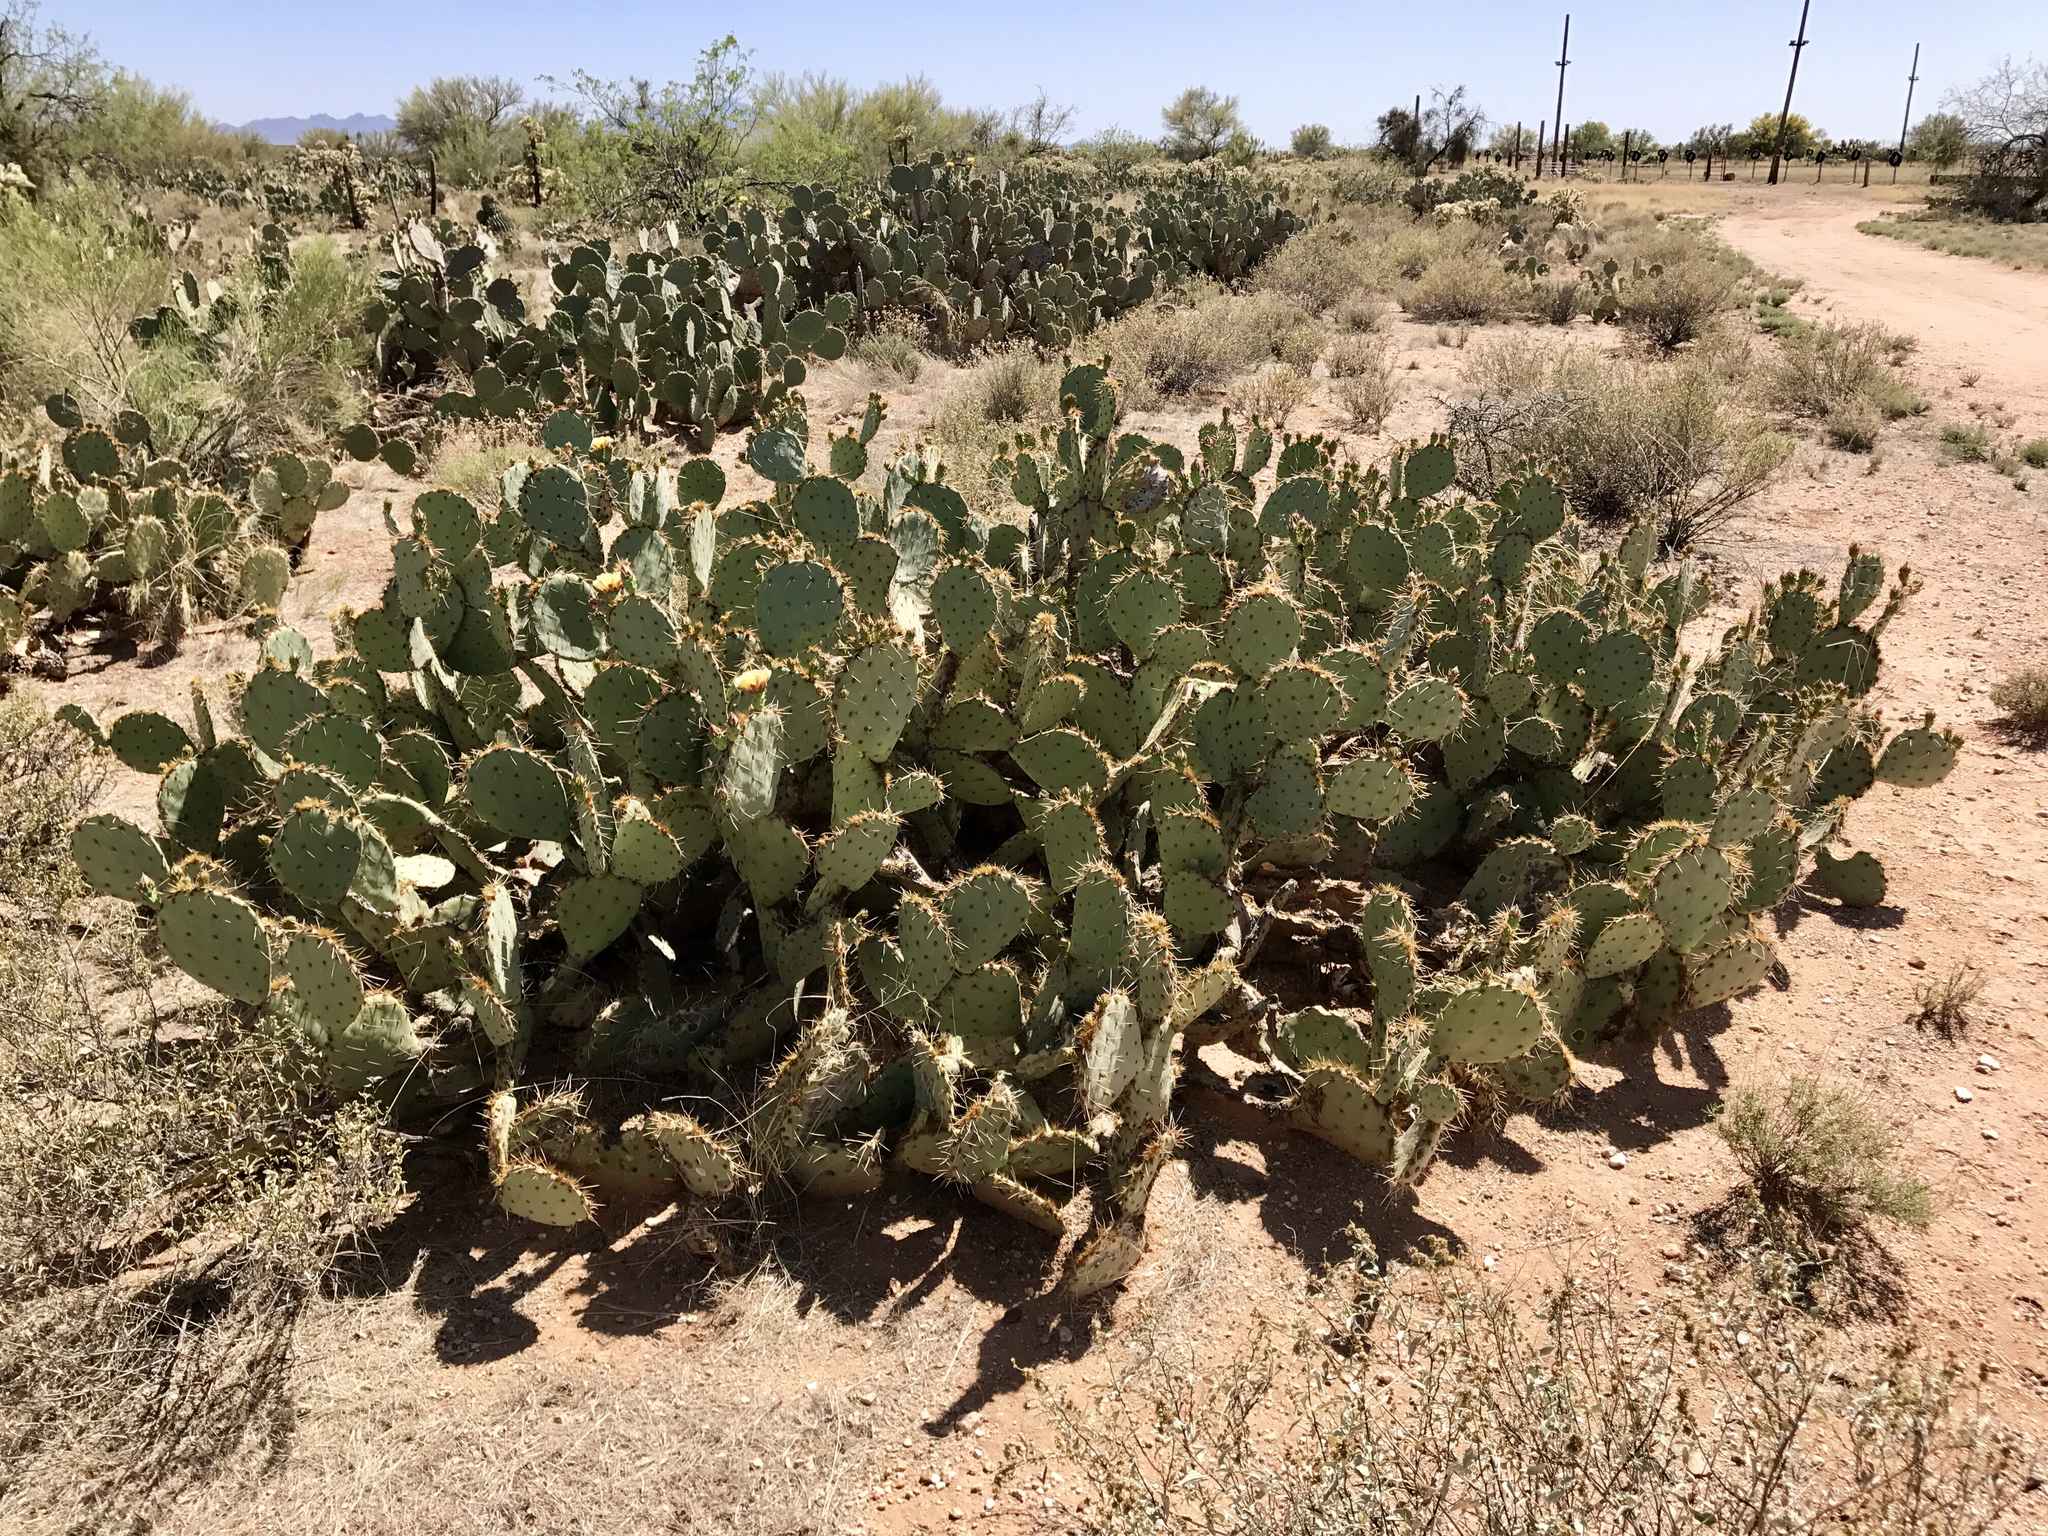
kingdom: Plantae
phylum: Tracheophyta
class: Magnoliopsida
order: Caryophyllales
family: Cactaceae
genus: Opuntia
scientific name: Opuntia engelmannii
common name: Cactus-apple
